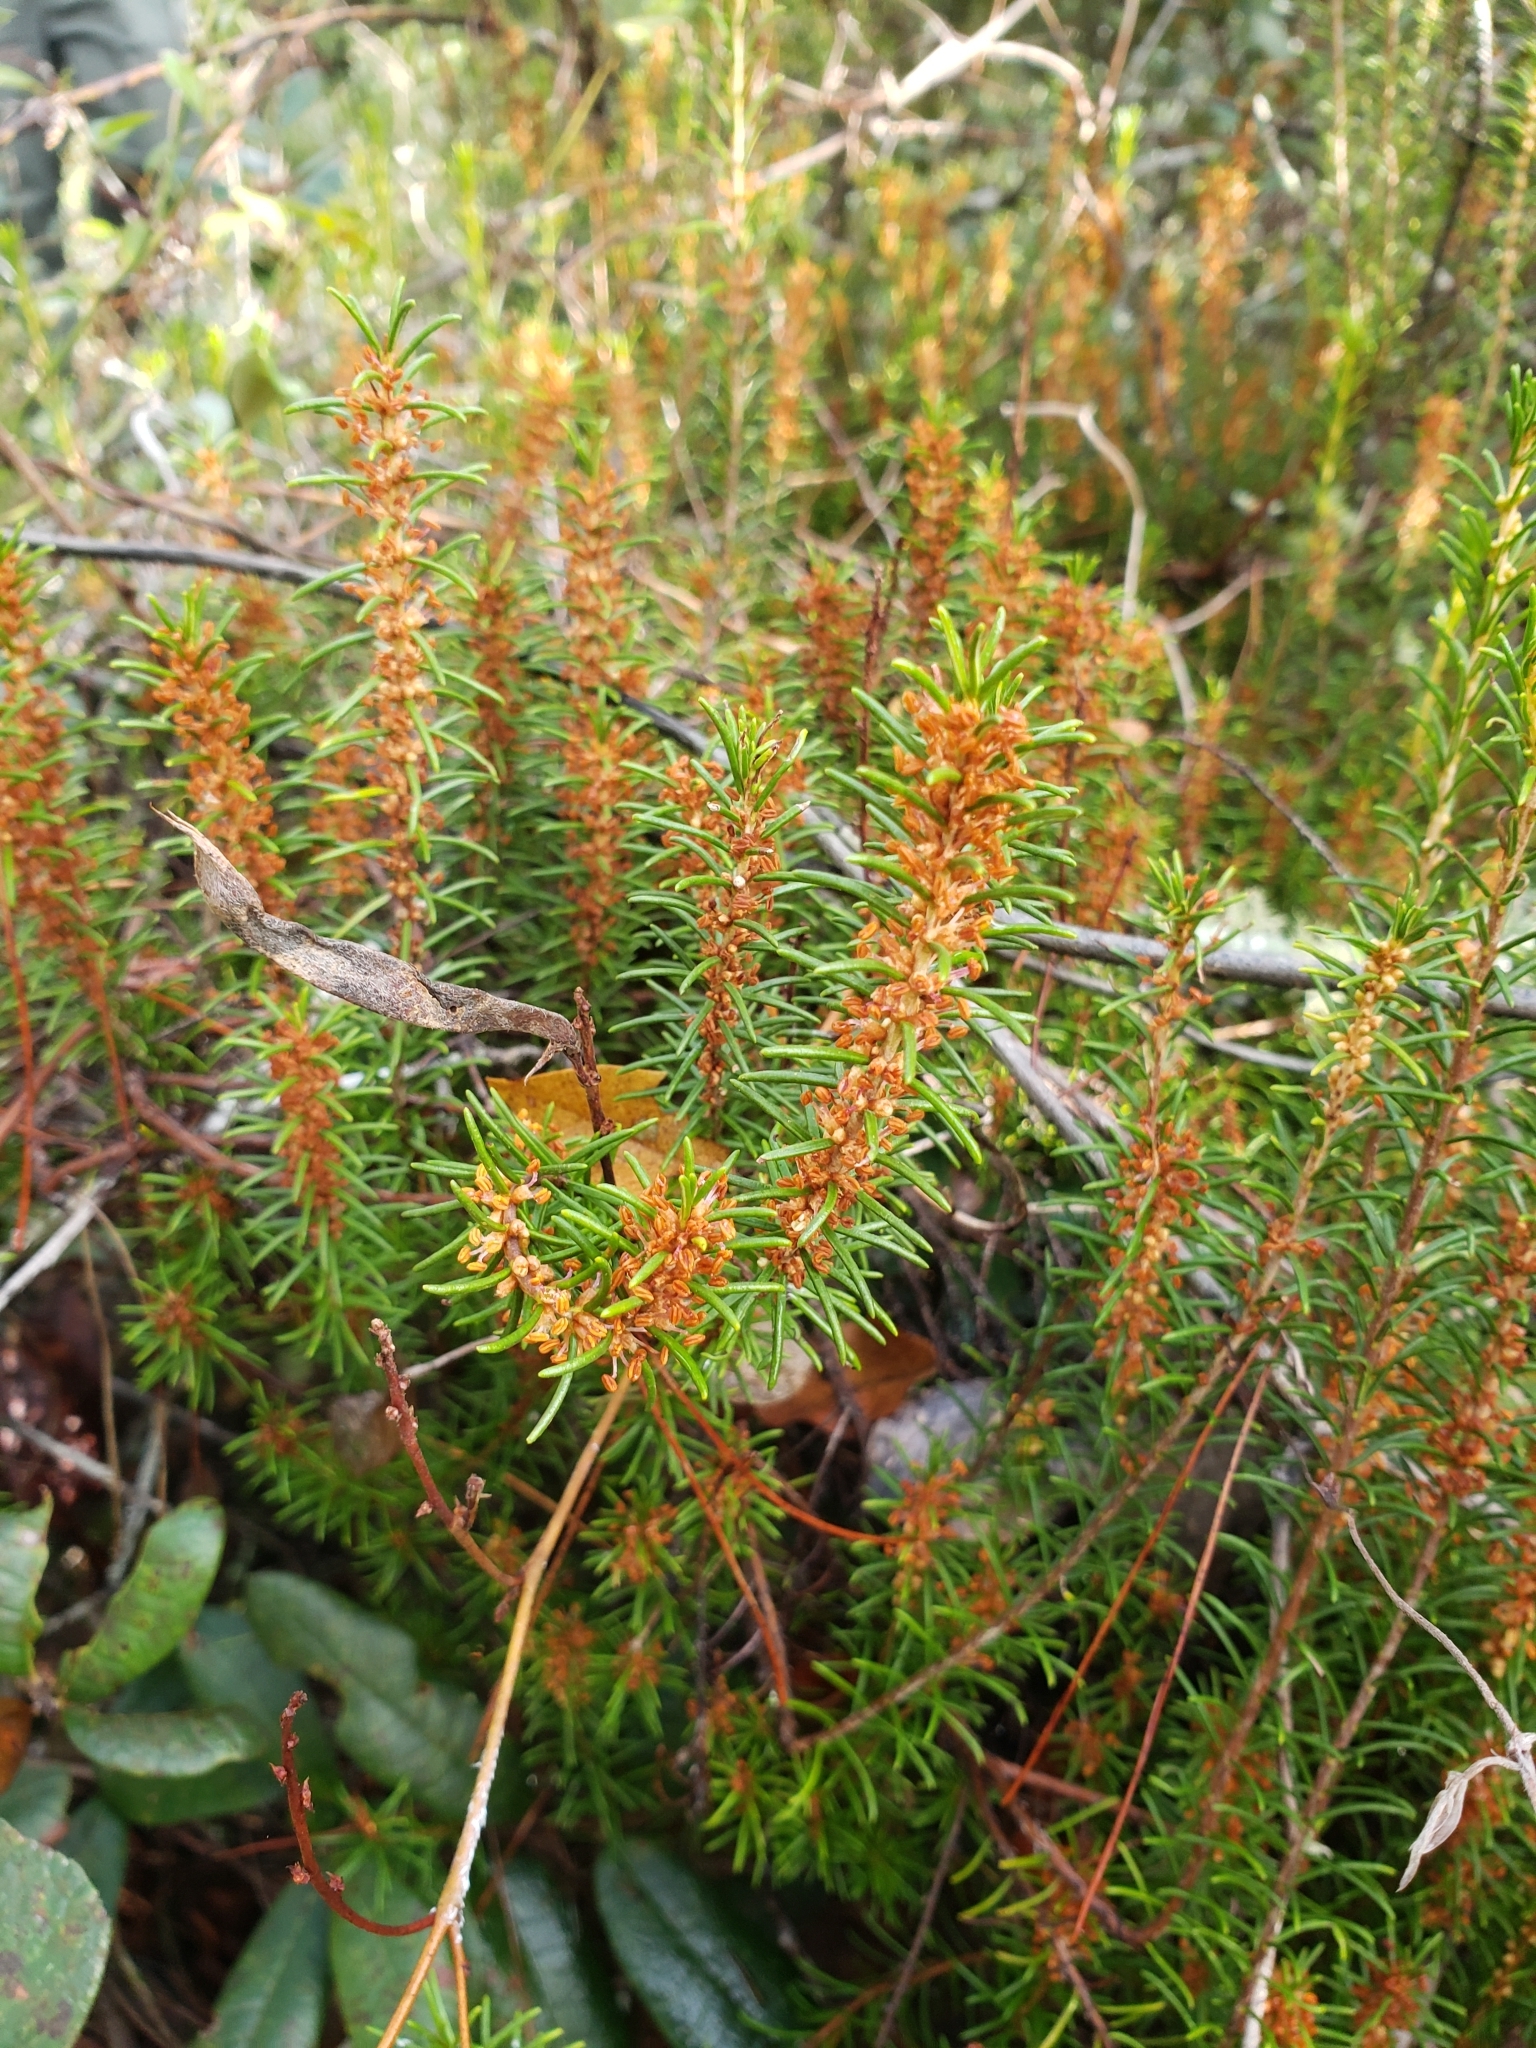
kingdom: Plantae
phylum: Tracheophyta
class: Magnoliopsida
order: Ericales
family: Ericaceae
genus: Ceratiola
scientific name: Ceratiola ericoides
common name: Sandhill-rosemary
